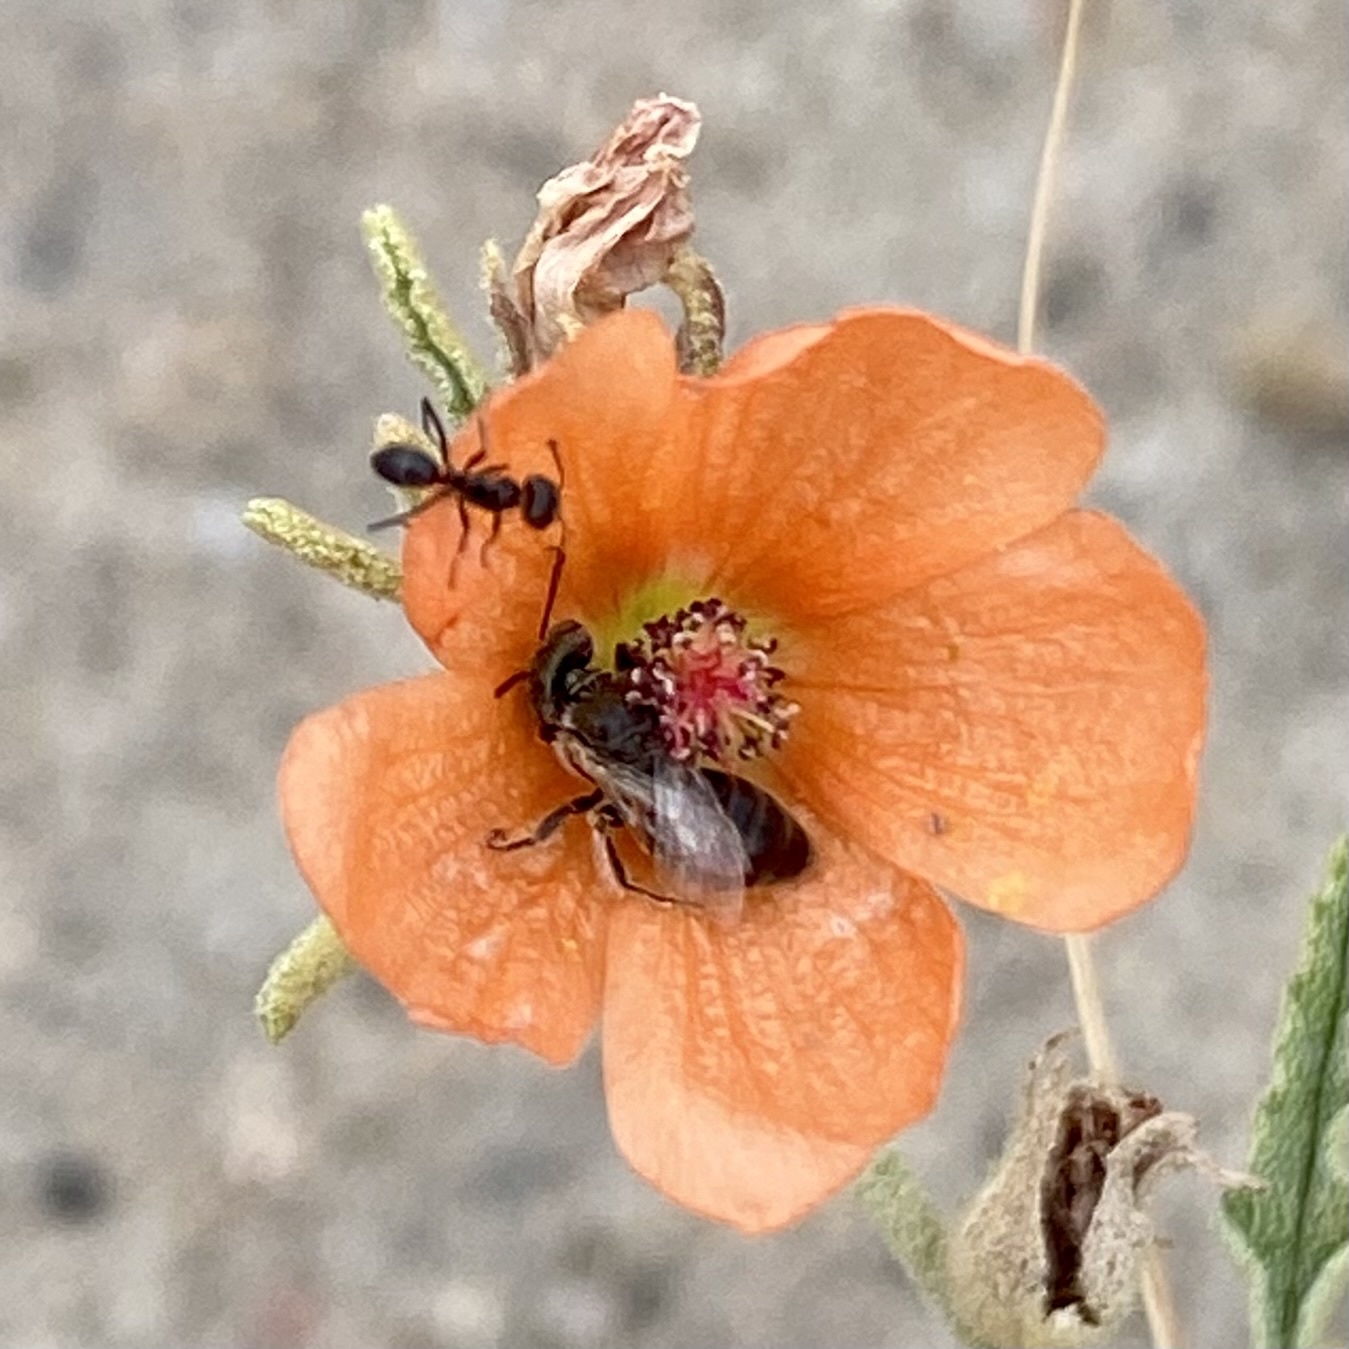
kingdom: Animalia
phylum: Arthropoda
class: Insecta
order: Hymenoptera
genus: Macroteropsis
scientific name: Macroteropsis
